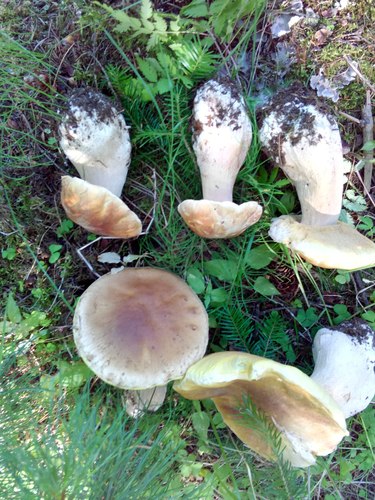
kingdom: Fungi
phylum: Basidiomycota
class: Agaricomycetes
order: Boletales
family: Boletaceae
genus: Boletus
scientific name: Boletus edulis
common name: Cep
